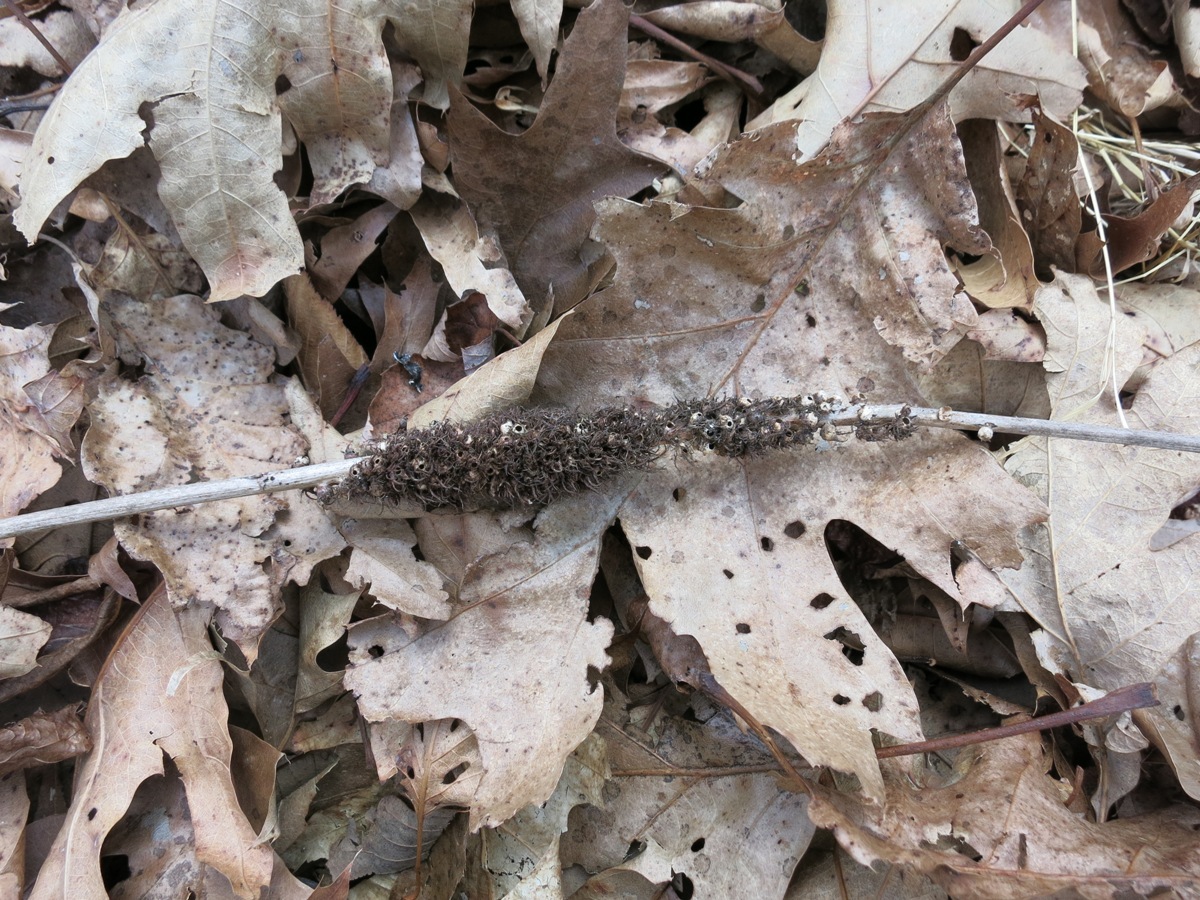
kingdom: Animalia
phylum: Arthropoda
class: Insecta
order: Hymenoptera
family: Cynipidae
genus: Diastrophus
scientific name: Diastrophus
